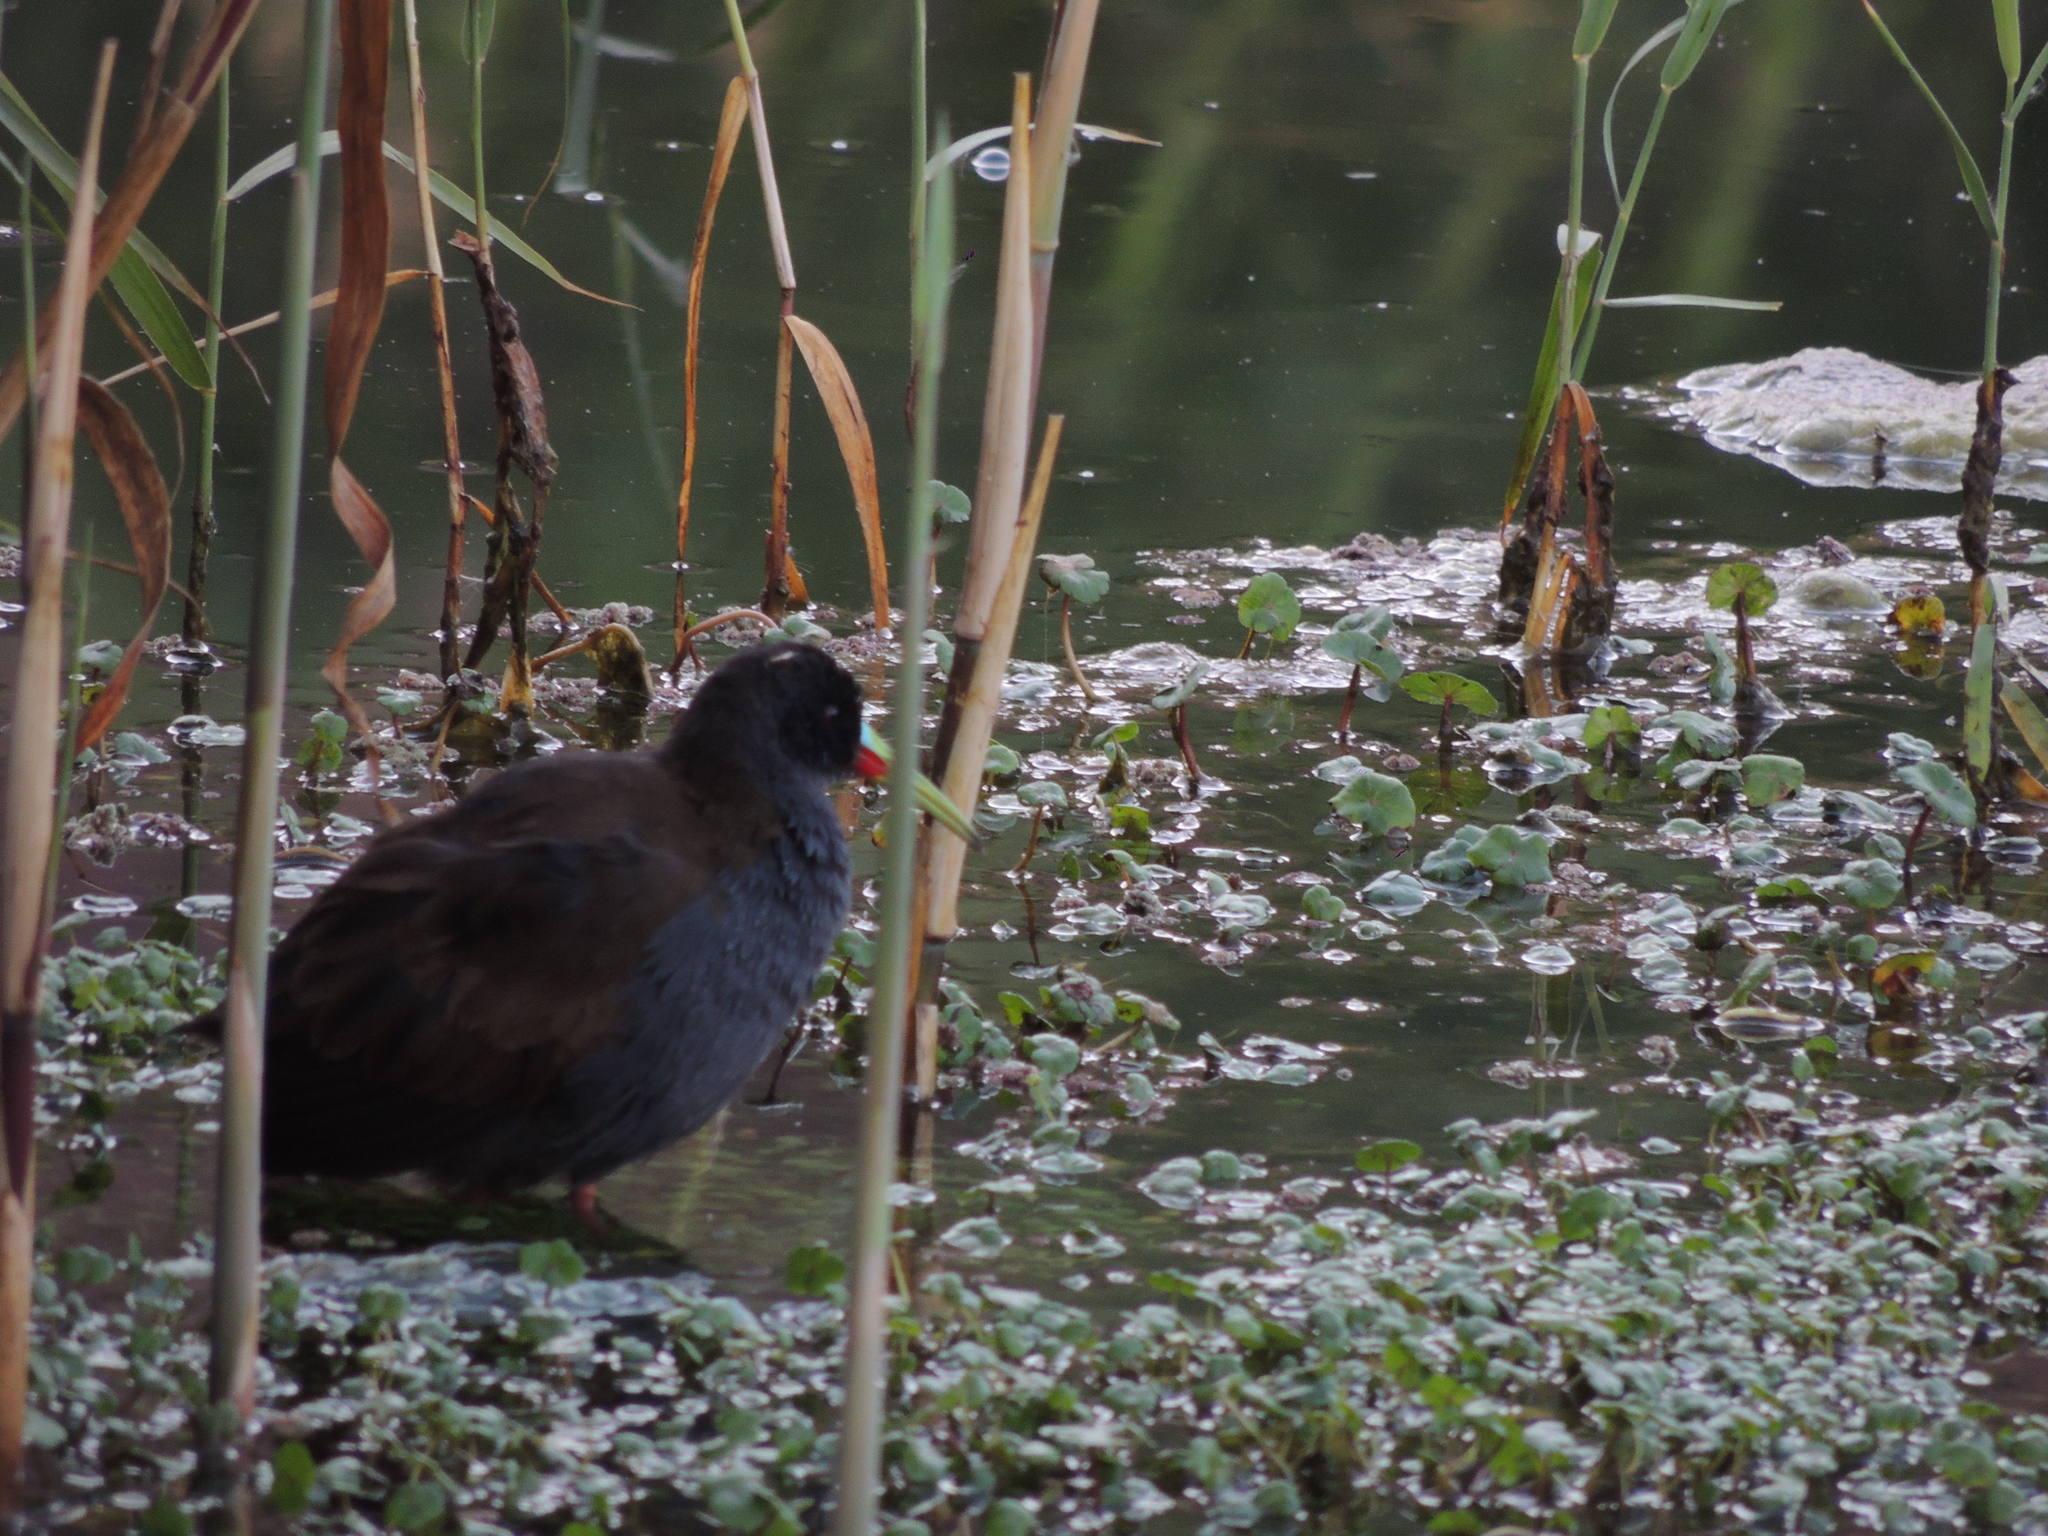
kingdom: Animalia
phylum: Chordata
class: Aves
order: Gruiformes
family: Rallidae
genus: Pardirallus
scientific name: Pardirallus sanguinolentus
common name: Plumbeous rail
